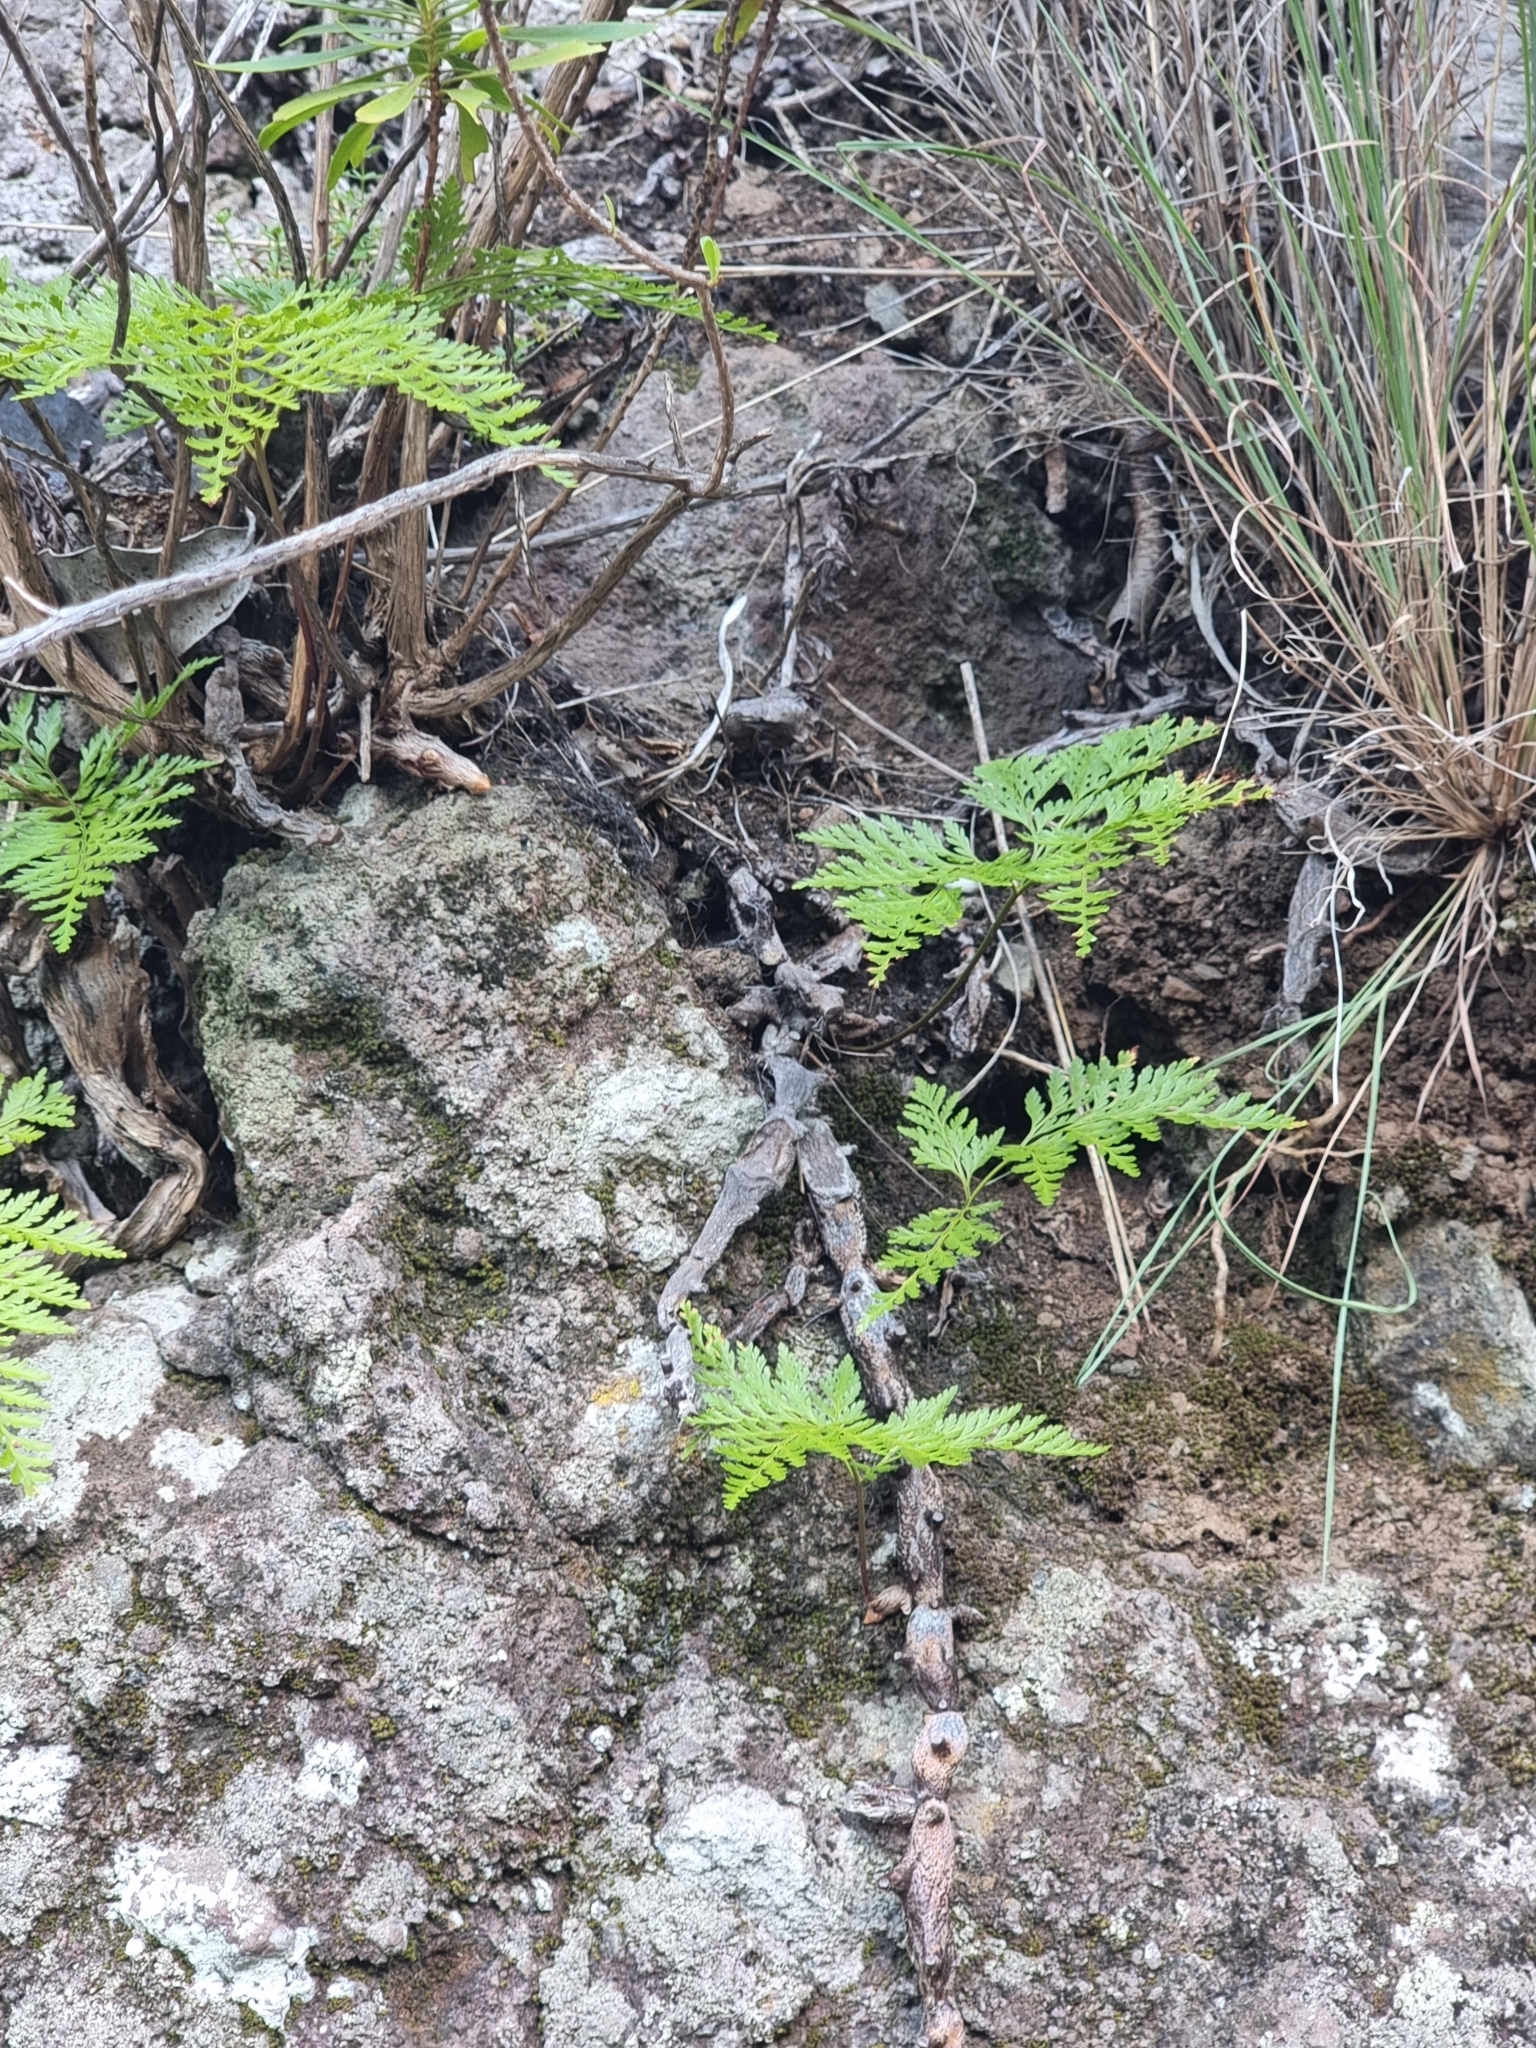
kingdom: Plantae
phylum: Tracheophyta
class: Polypodiopsida
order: Polypodiales
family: Davalliaceae
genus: Davallia
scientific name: Davallia canariensis
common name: Hare's-foot fern
